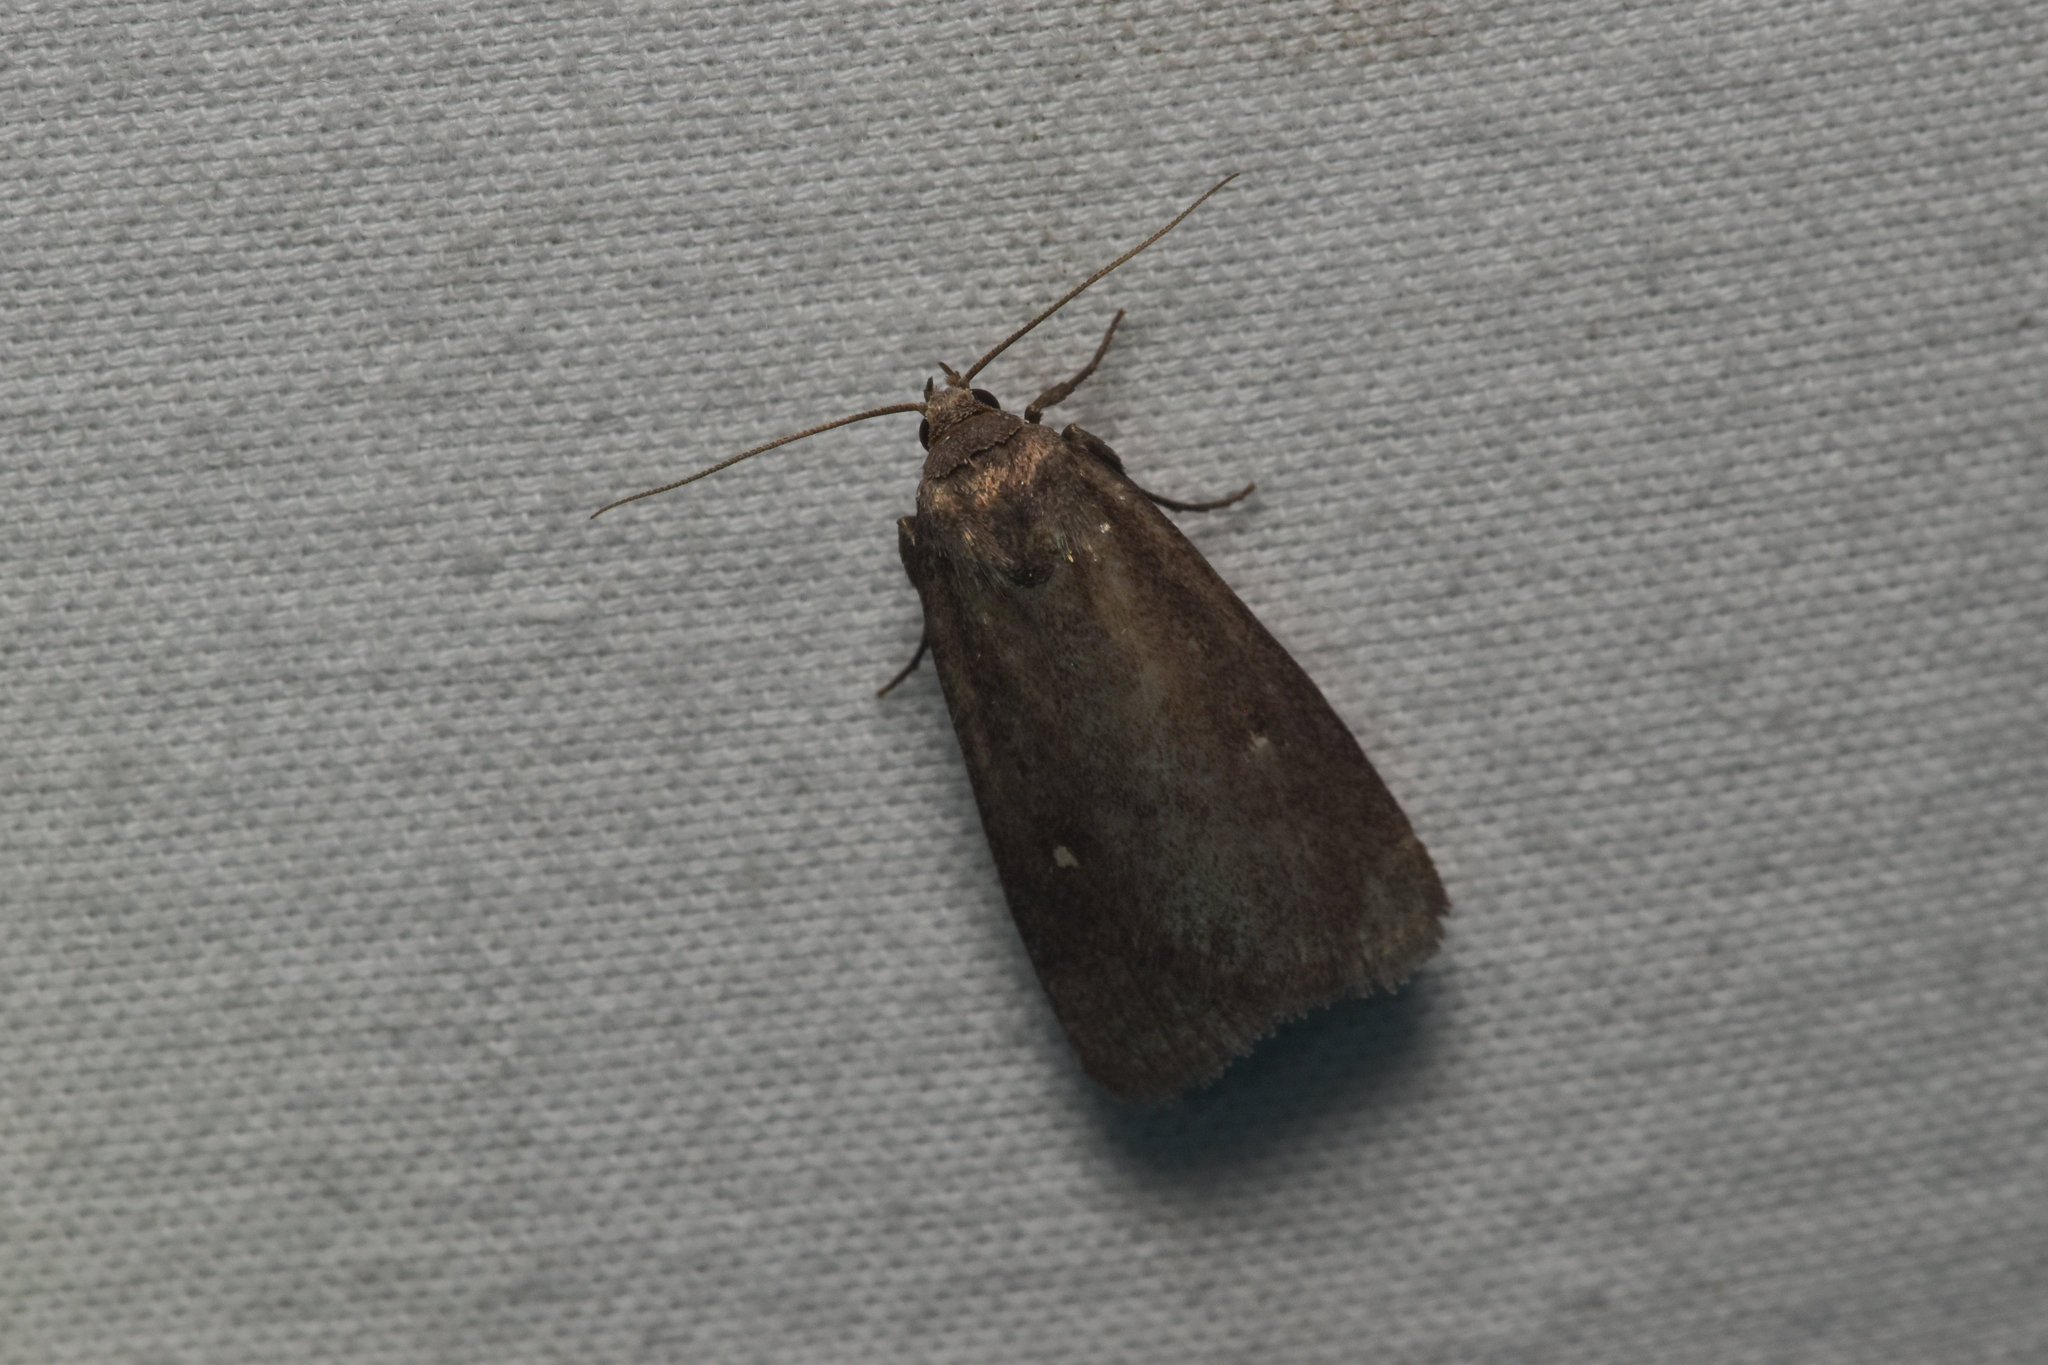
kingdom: Animalia
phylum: Arthropoda
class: Insecta
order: Lepidoptera
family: Noctuidae
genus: Proxenus
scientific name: Proxenus miranda
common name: Miranda moth
